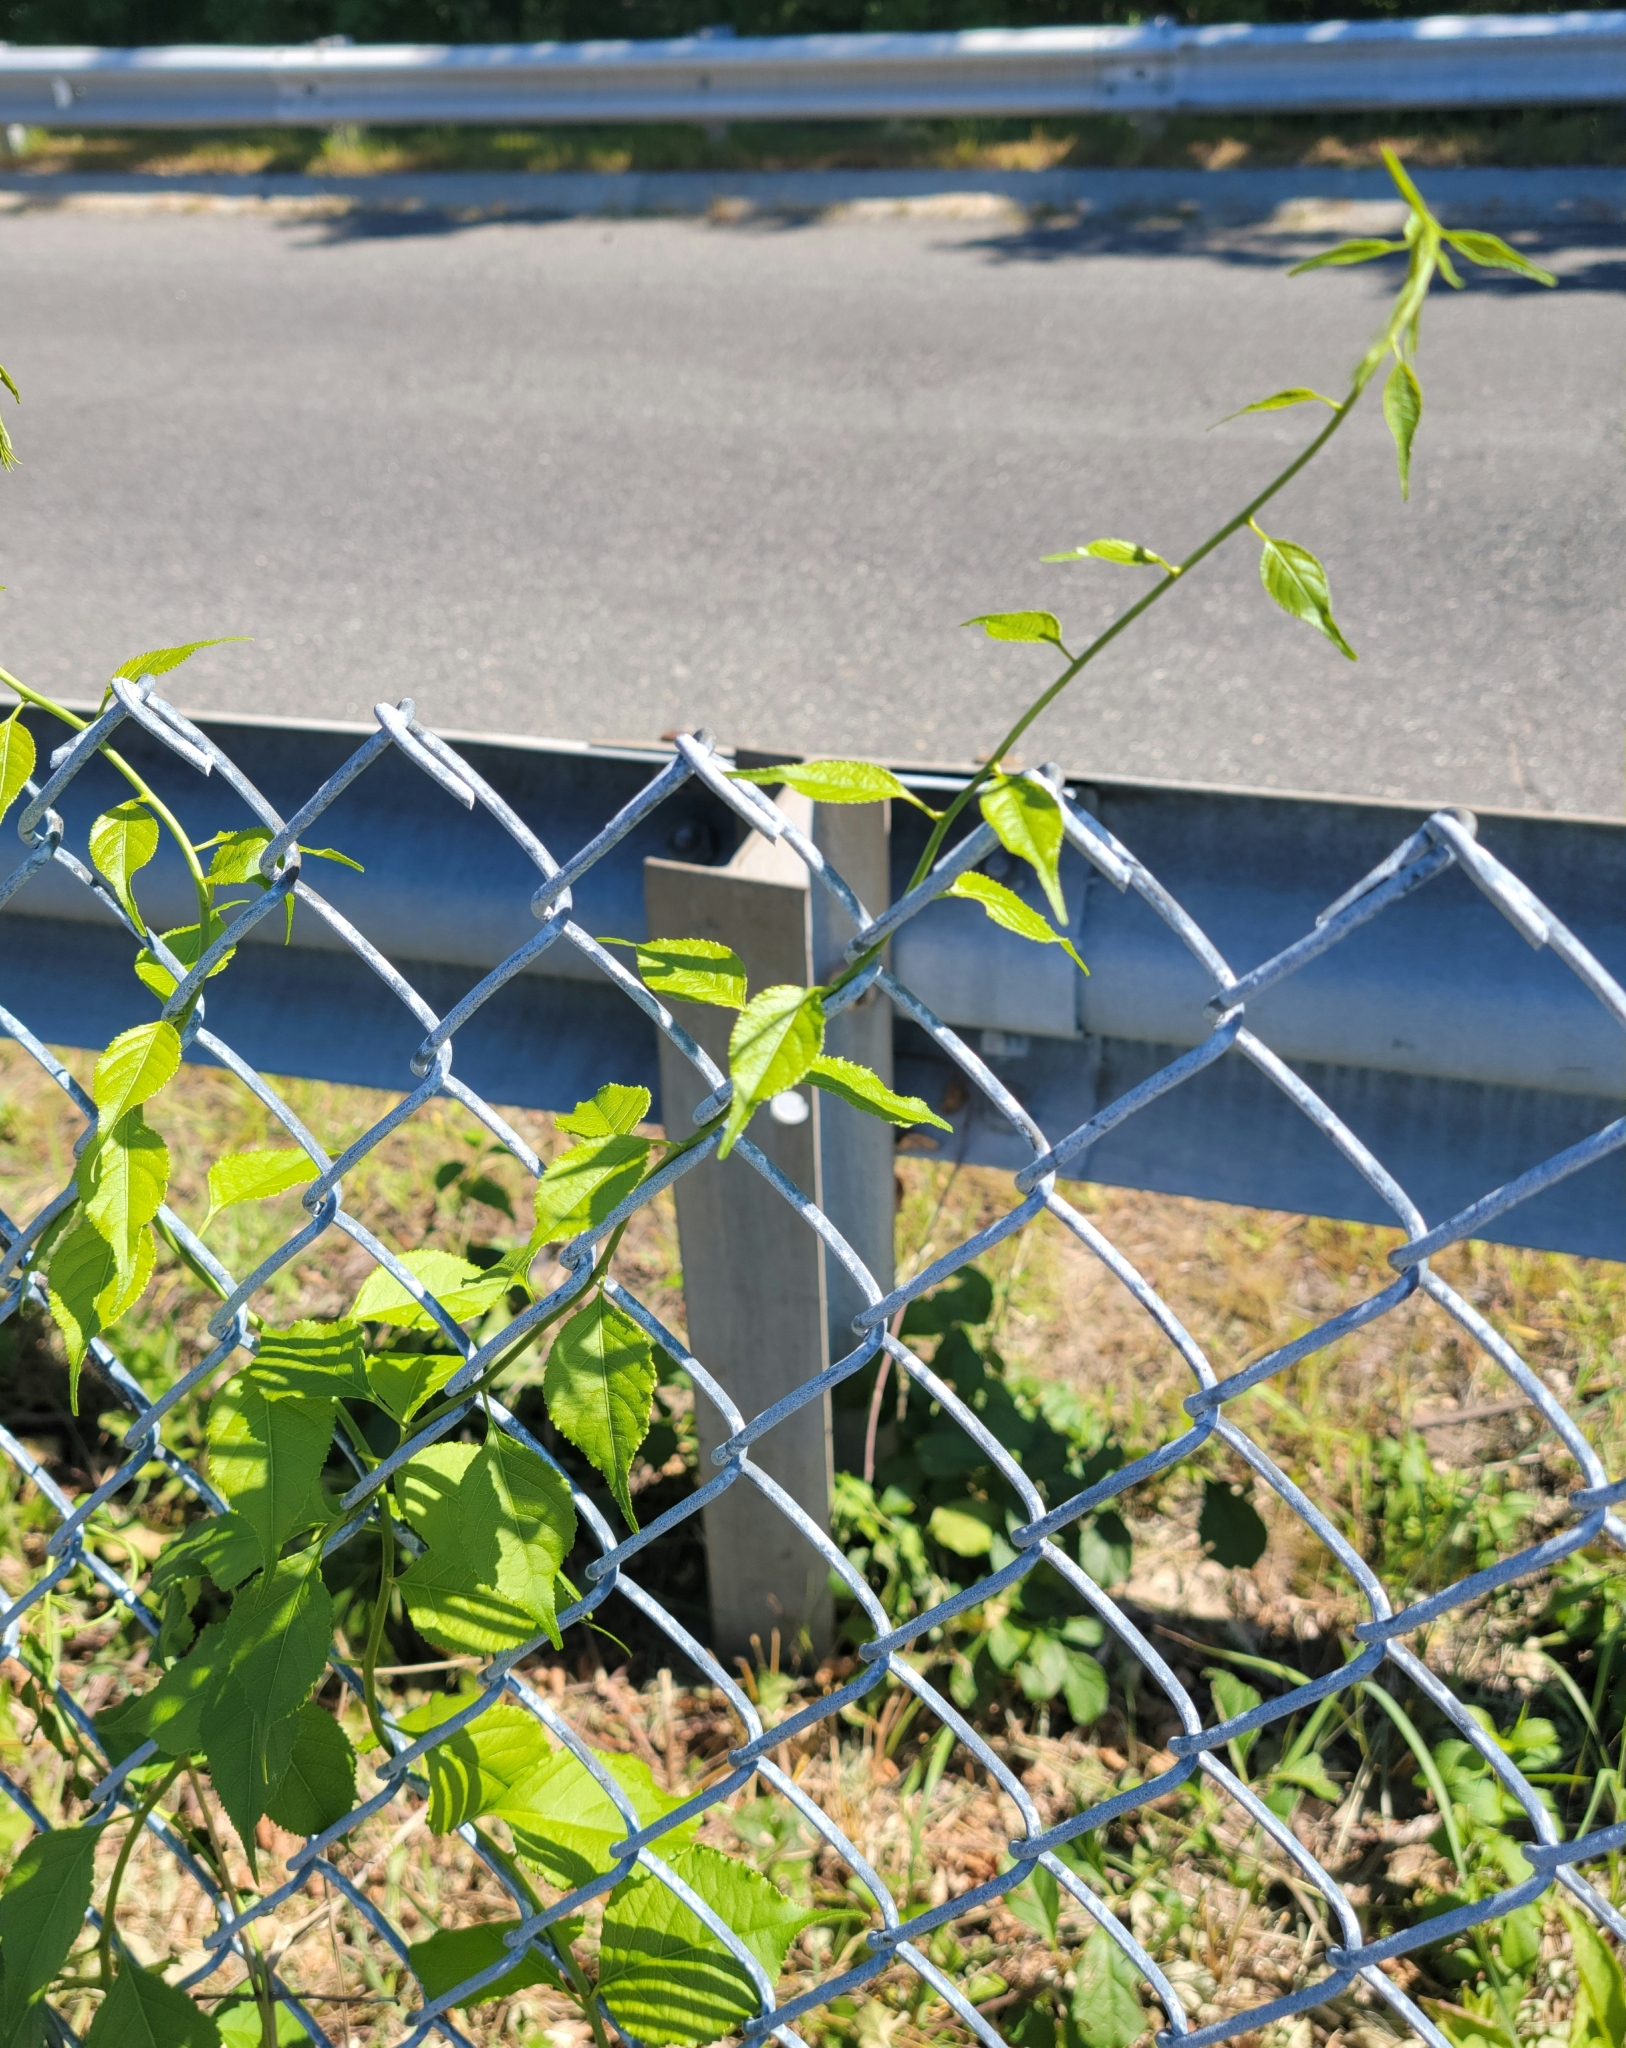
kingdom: Plantae
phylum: Tracheophyta
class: Magnoliopsida
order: Celastrales
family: Celastraceae
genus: Celastrus
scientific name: Celastrus orbiculatus
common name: Oriental bittersweet
